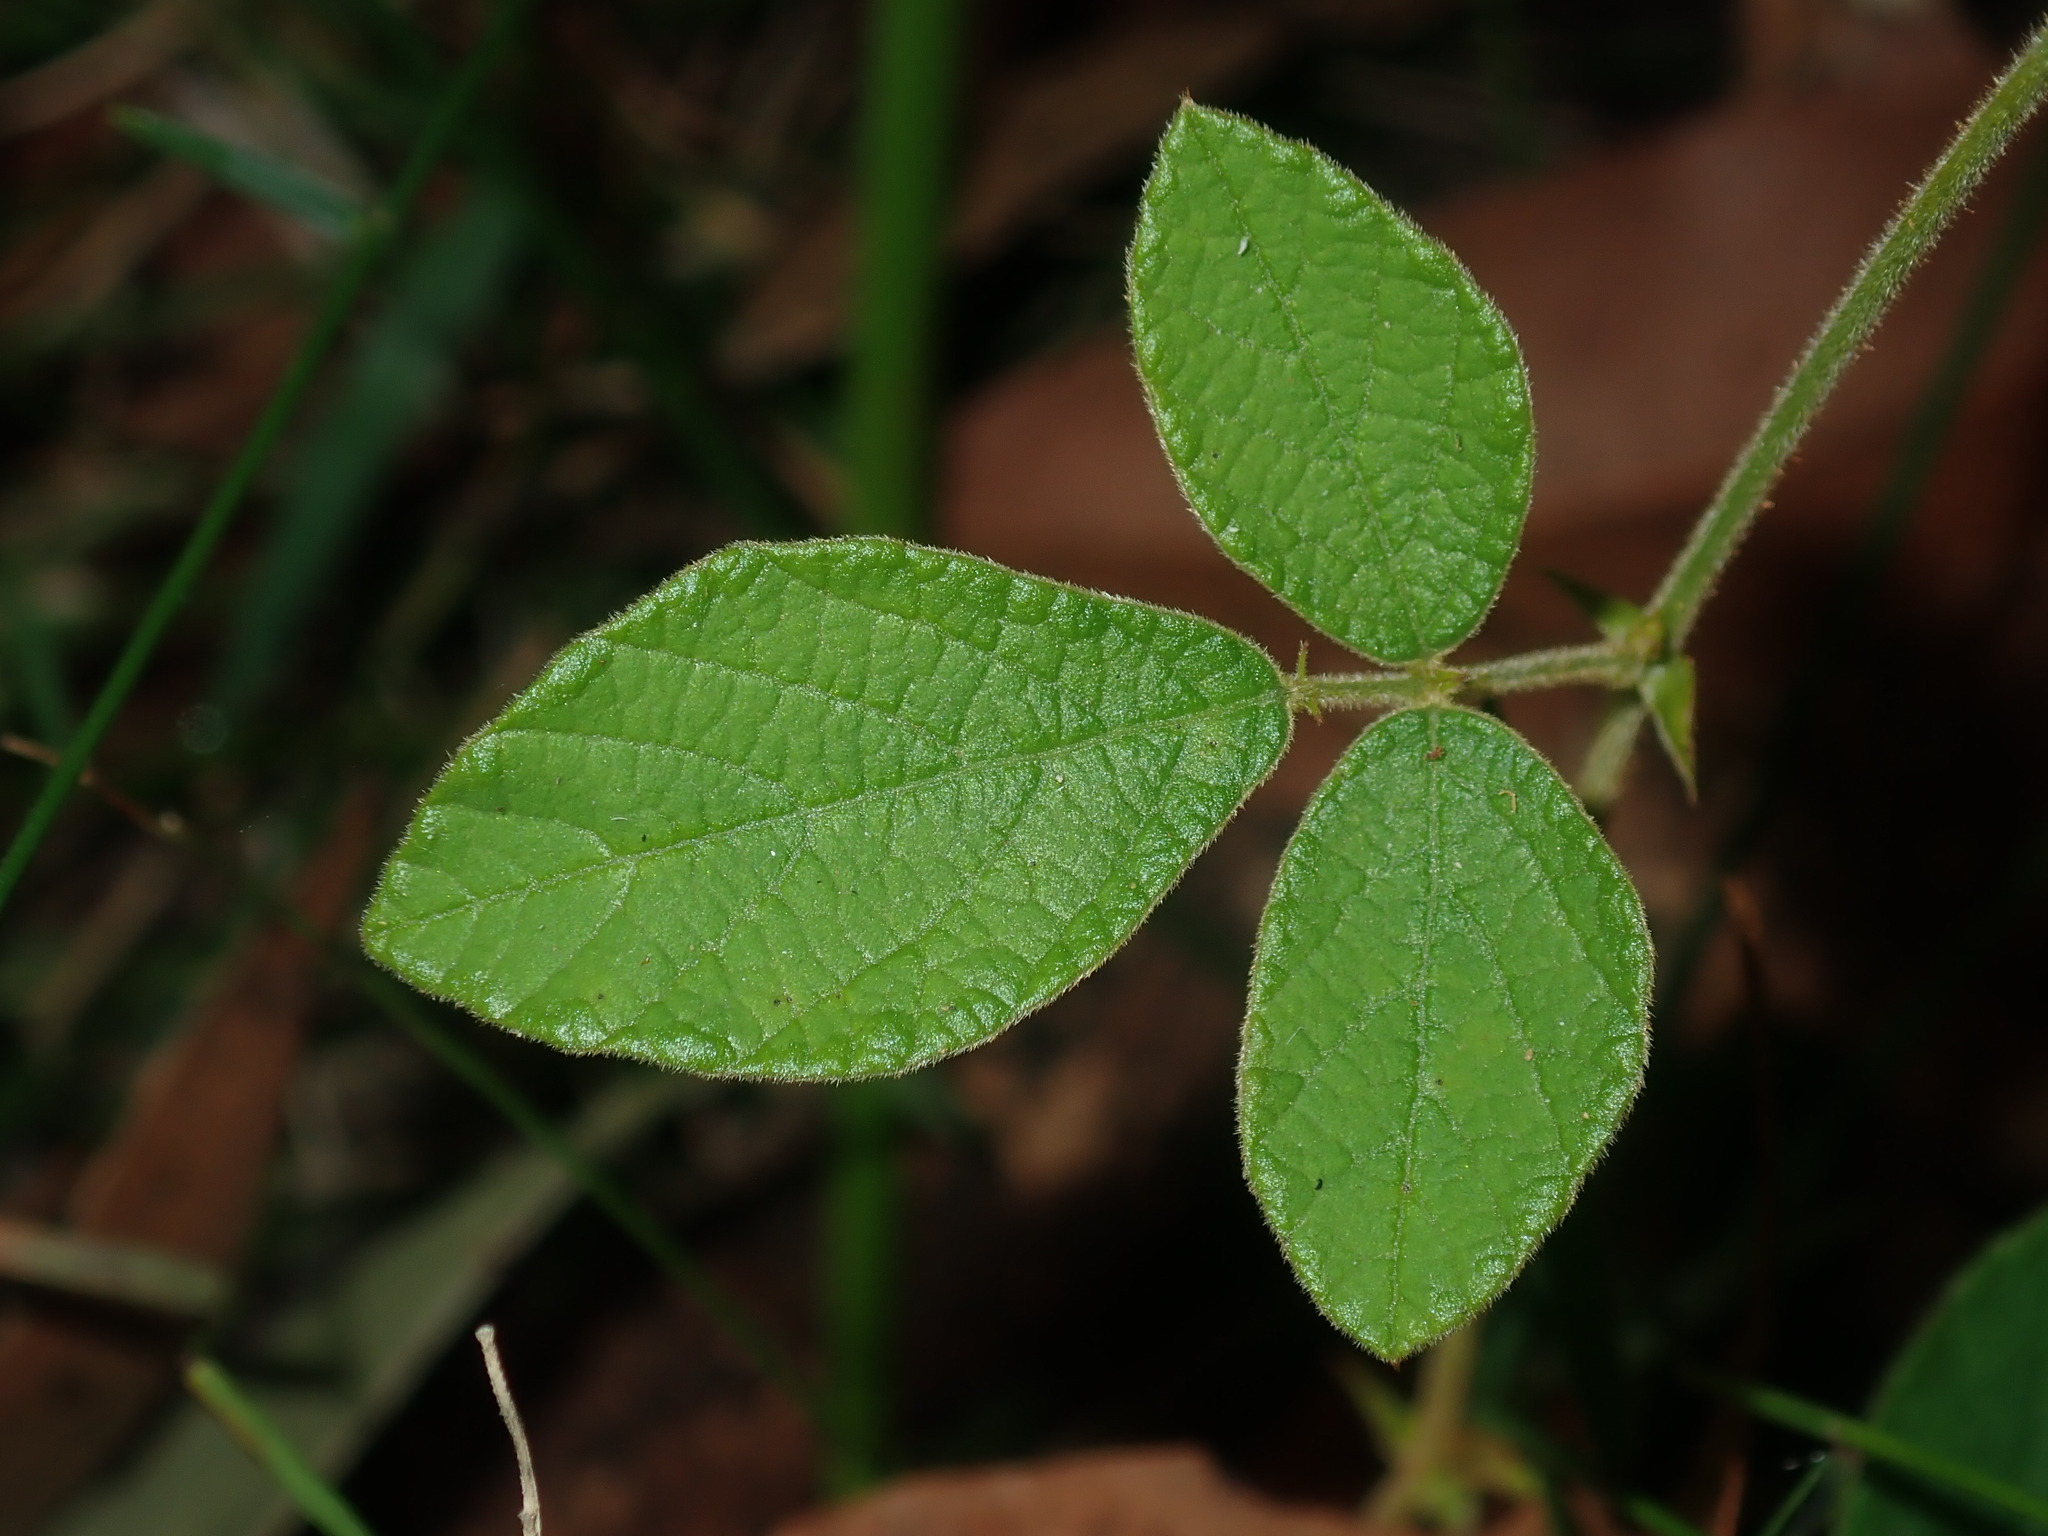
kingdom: Plantae
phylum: Tracheophyta
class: Magnoliopsida
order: Fabales
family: Fabaceae
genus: Maekawaea
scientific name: Maekawaea rhytidophylla
